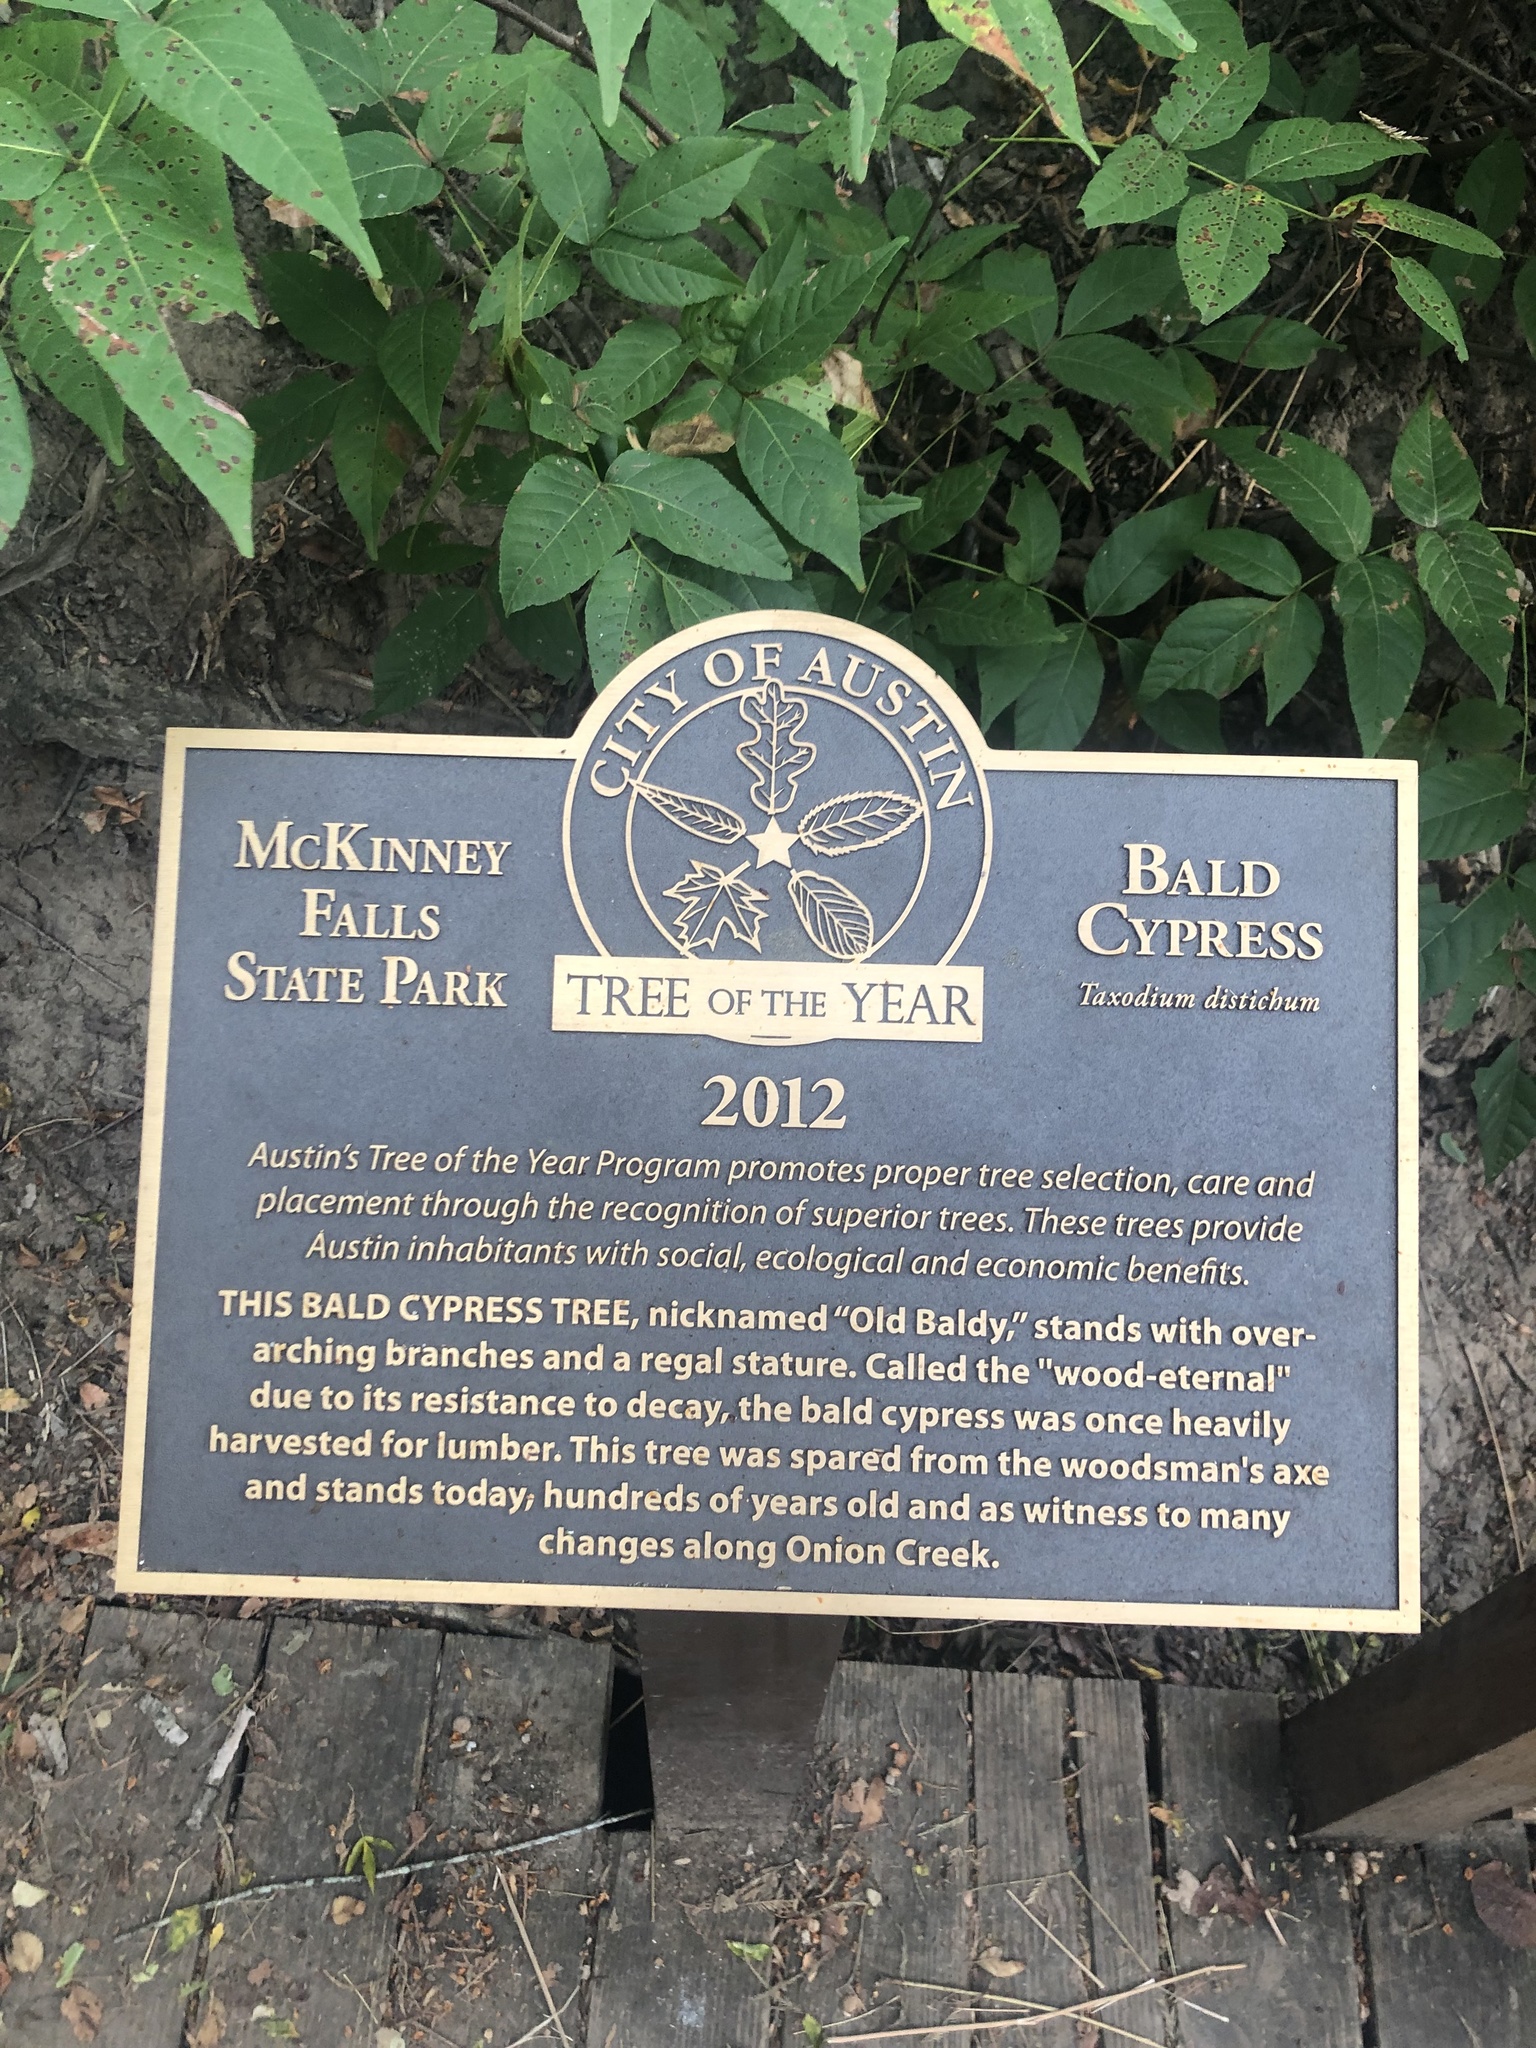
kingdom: Plantae
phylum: Tracheophyta
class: Pinopsida
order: Pinales
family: Cupressaceae
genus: Taxodium
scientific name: Taxodium distichum
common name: Bald cypress
